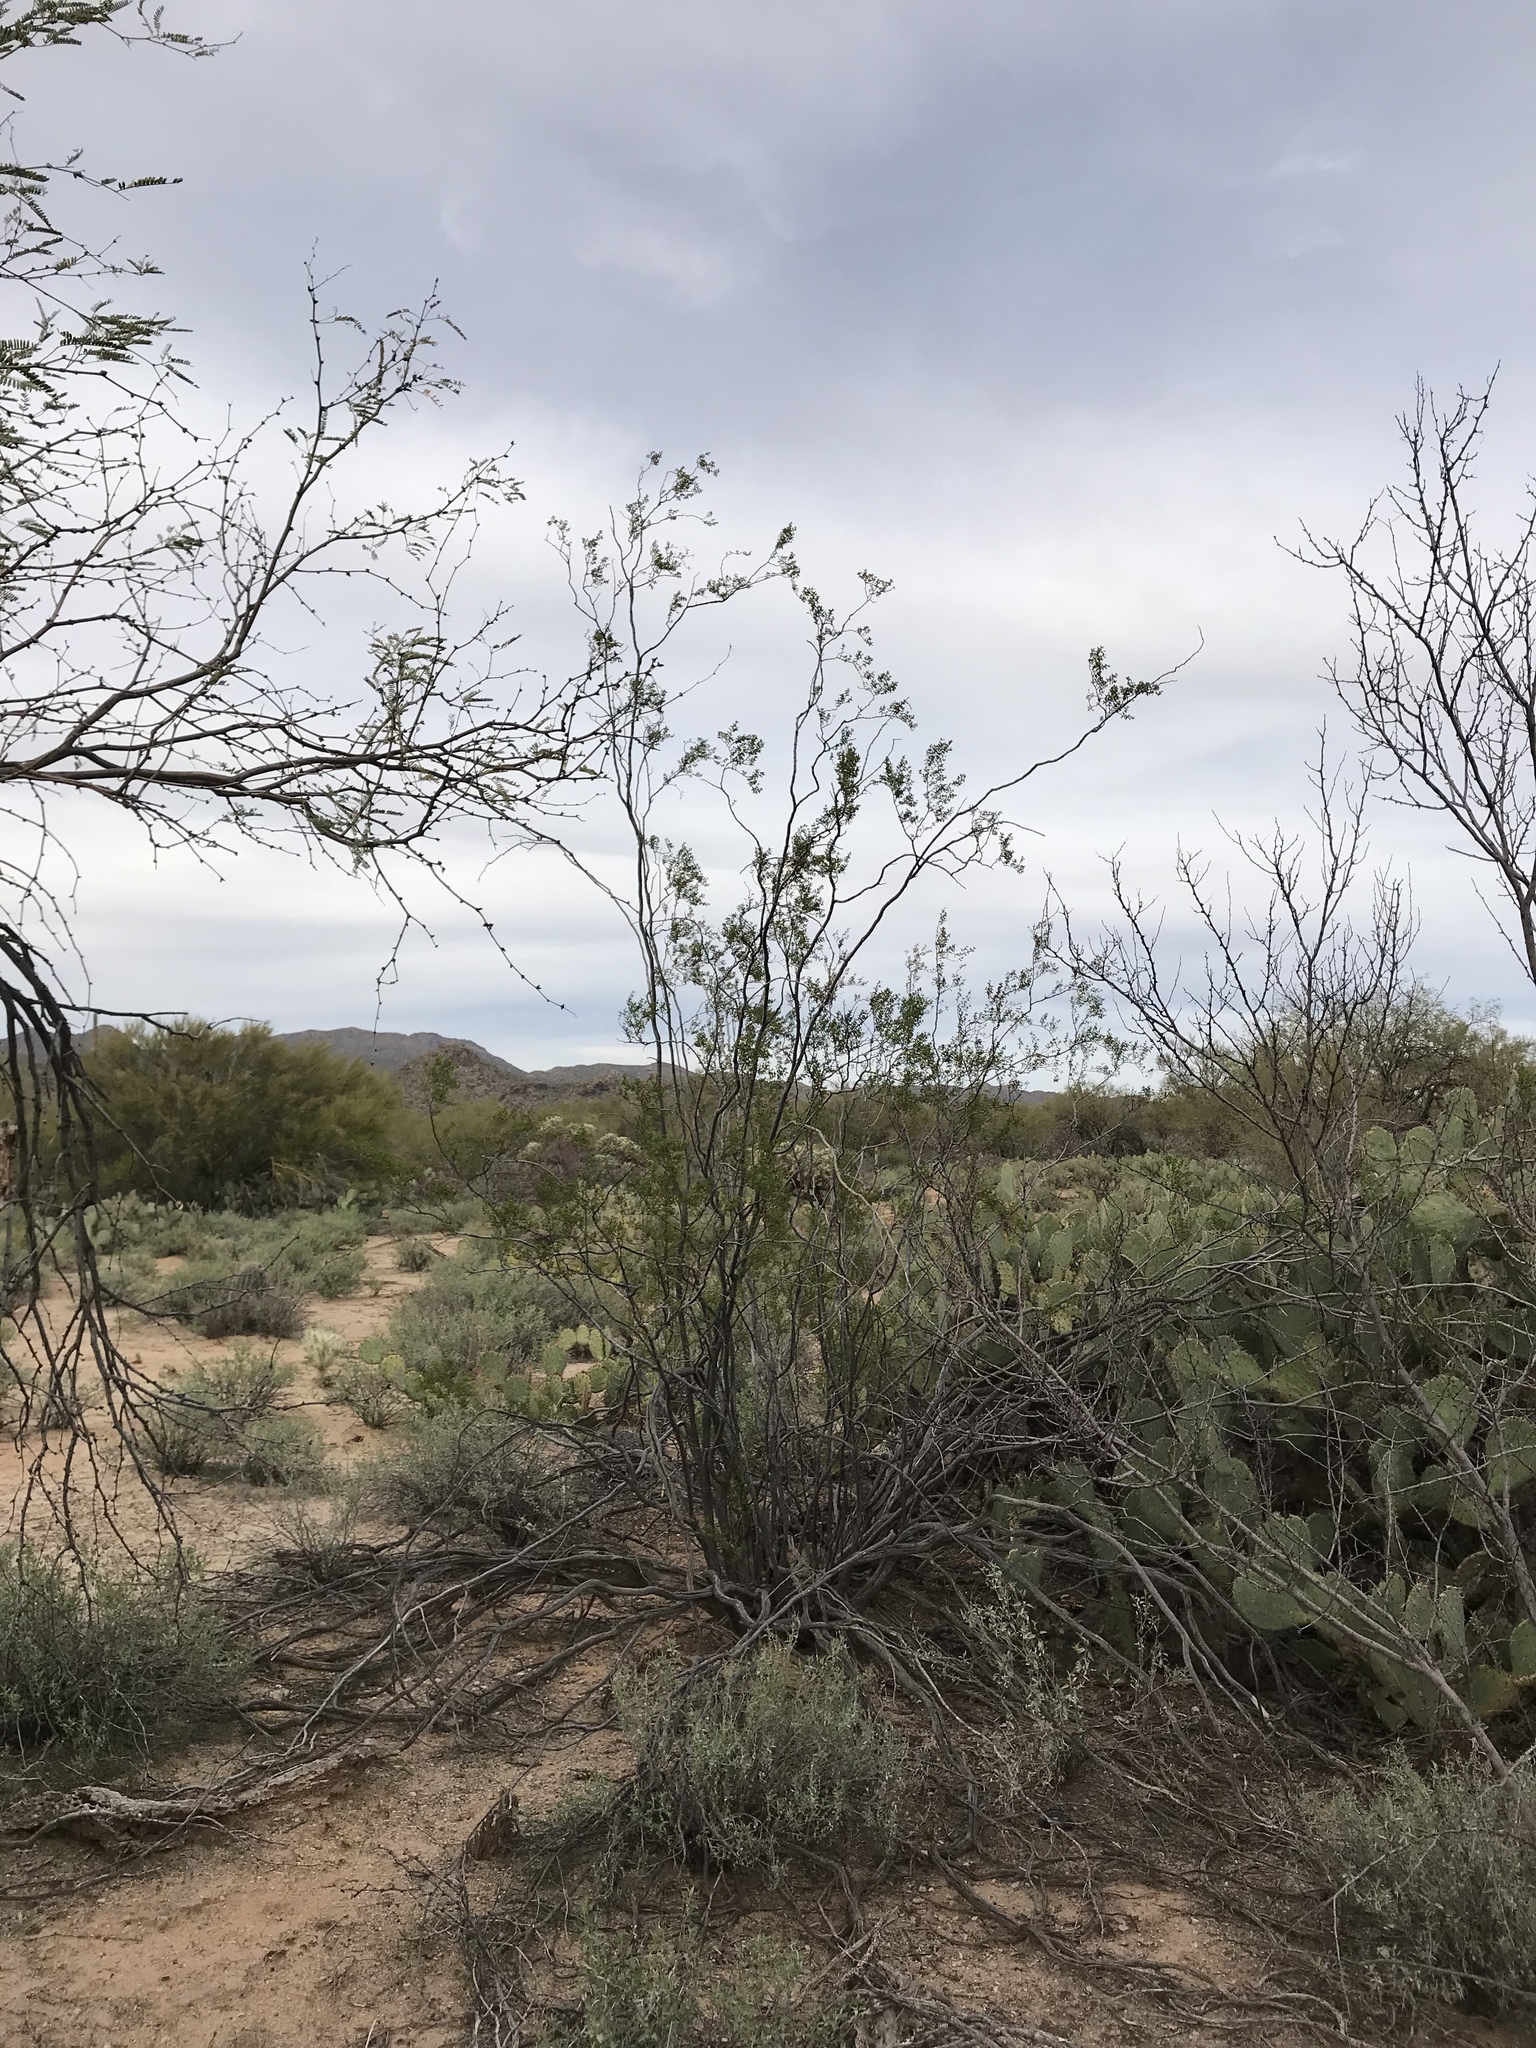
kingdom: Plantae
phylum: Tracheophyta
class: Magnoliopsida
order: Zygophyllales
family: Zygophyllaceae
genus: Larrea
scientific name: Larrea tridentata
